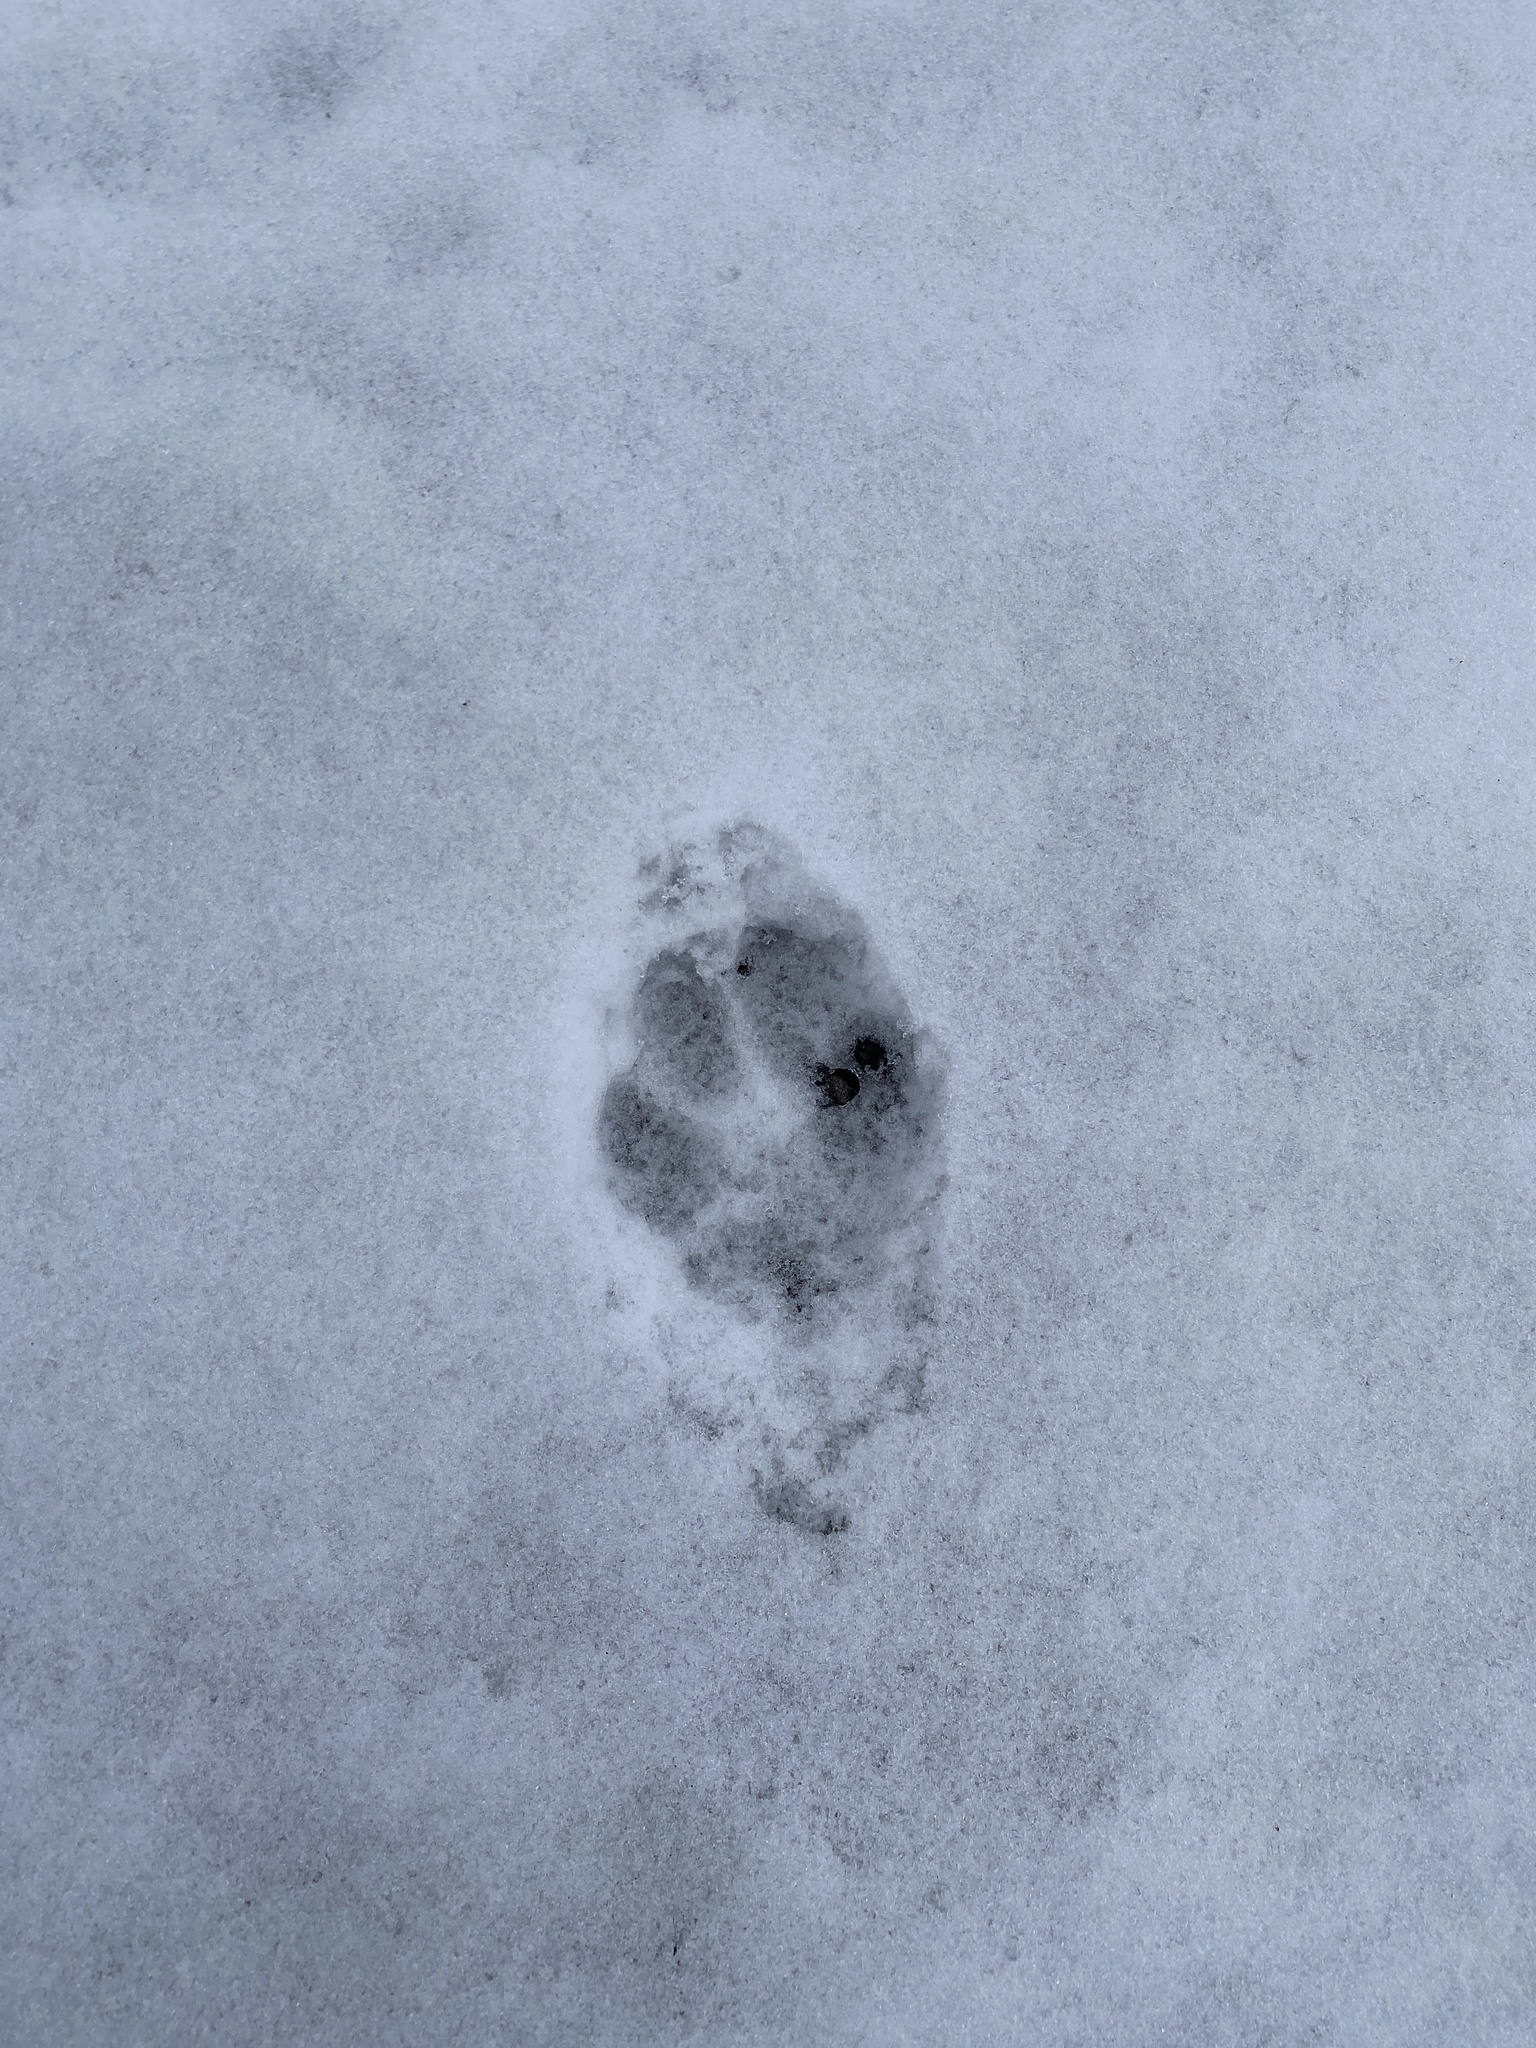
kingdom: Animalia
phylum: Chordata
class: Mammalia
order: Carnivora
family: Canidae
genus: Vulpes
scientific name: Vulpes vulpes
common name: Red fox
